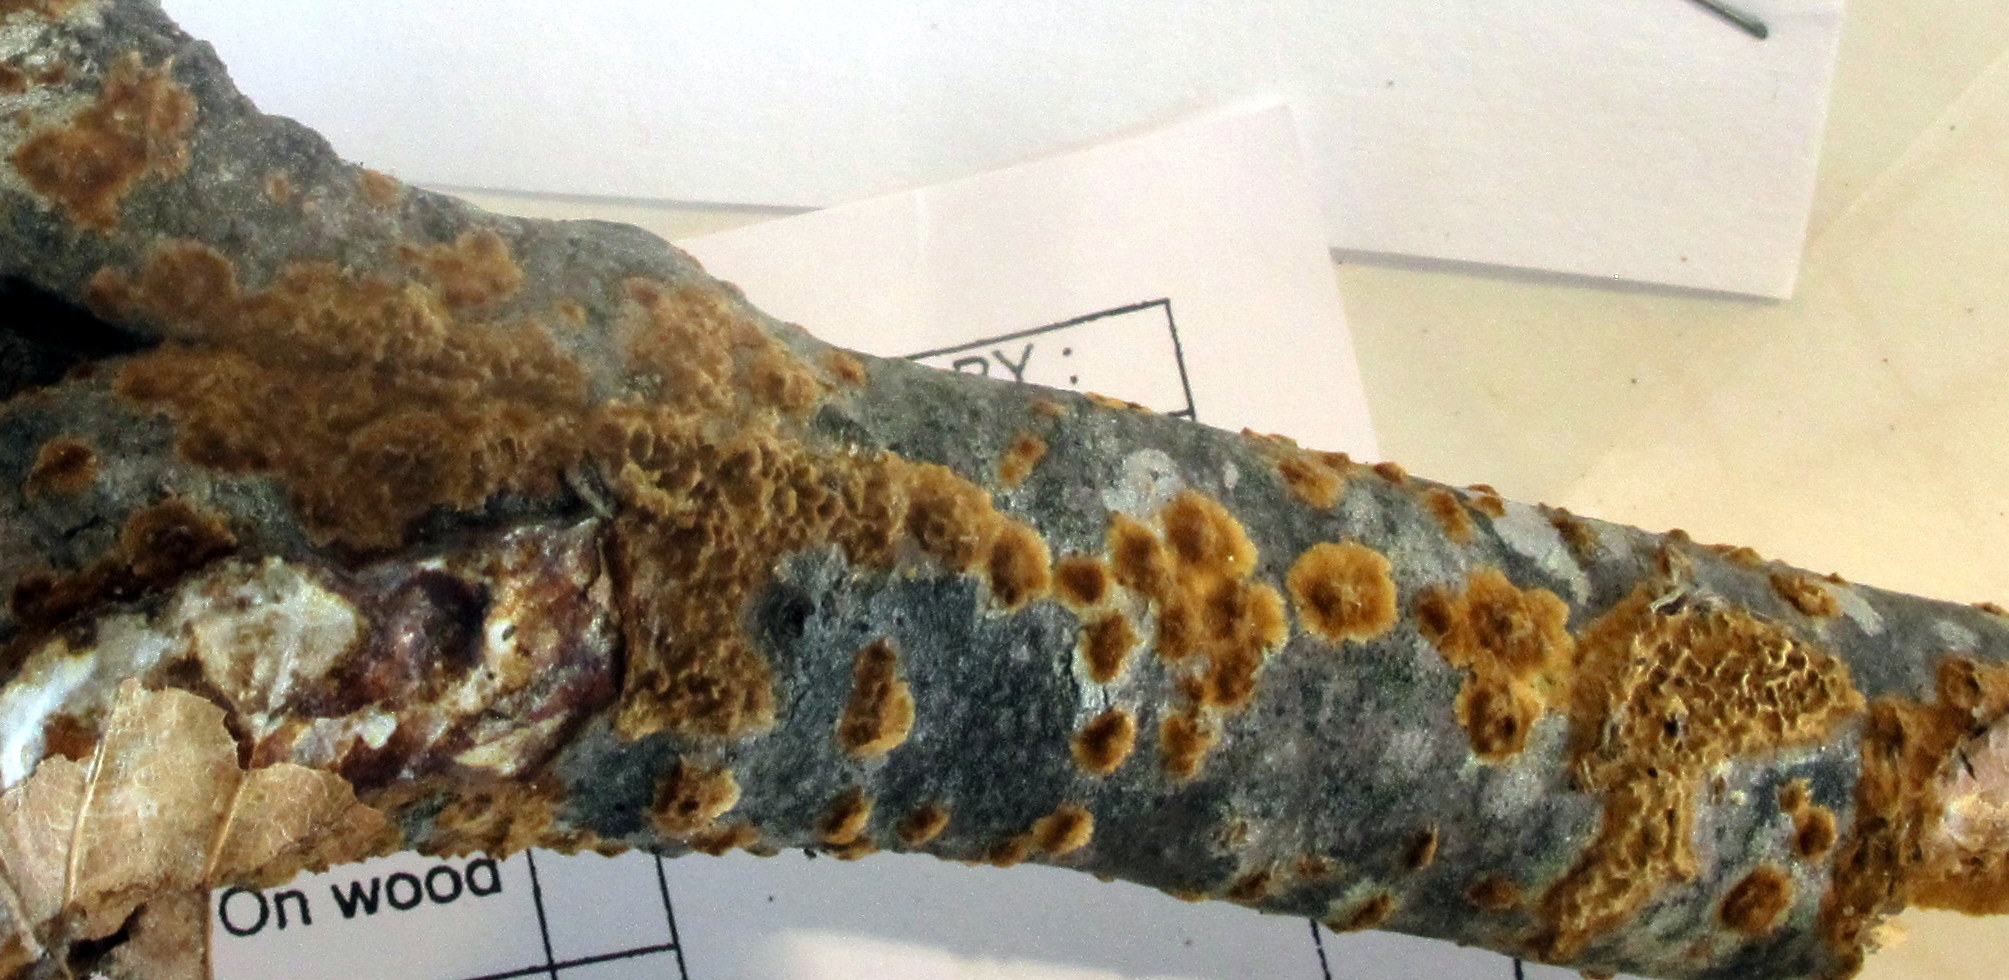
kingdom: Fungi
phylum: Basidiomycota
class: Agaricomycetes
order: Hymenochaetales
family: Hymenochaetaceae
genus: Hydnoporia
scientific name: Hydnoporia olivacea
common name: Brown-toothed crust fungus
